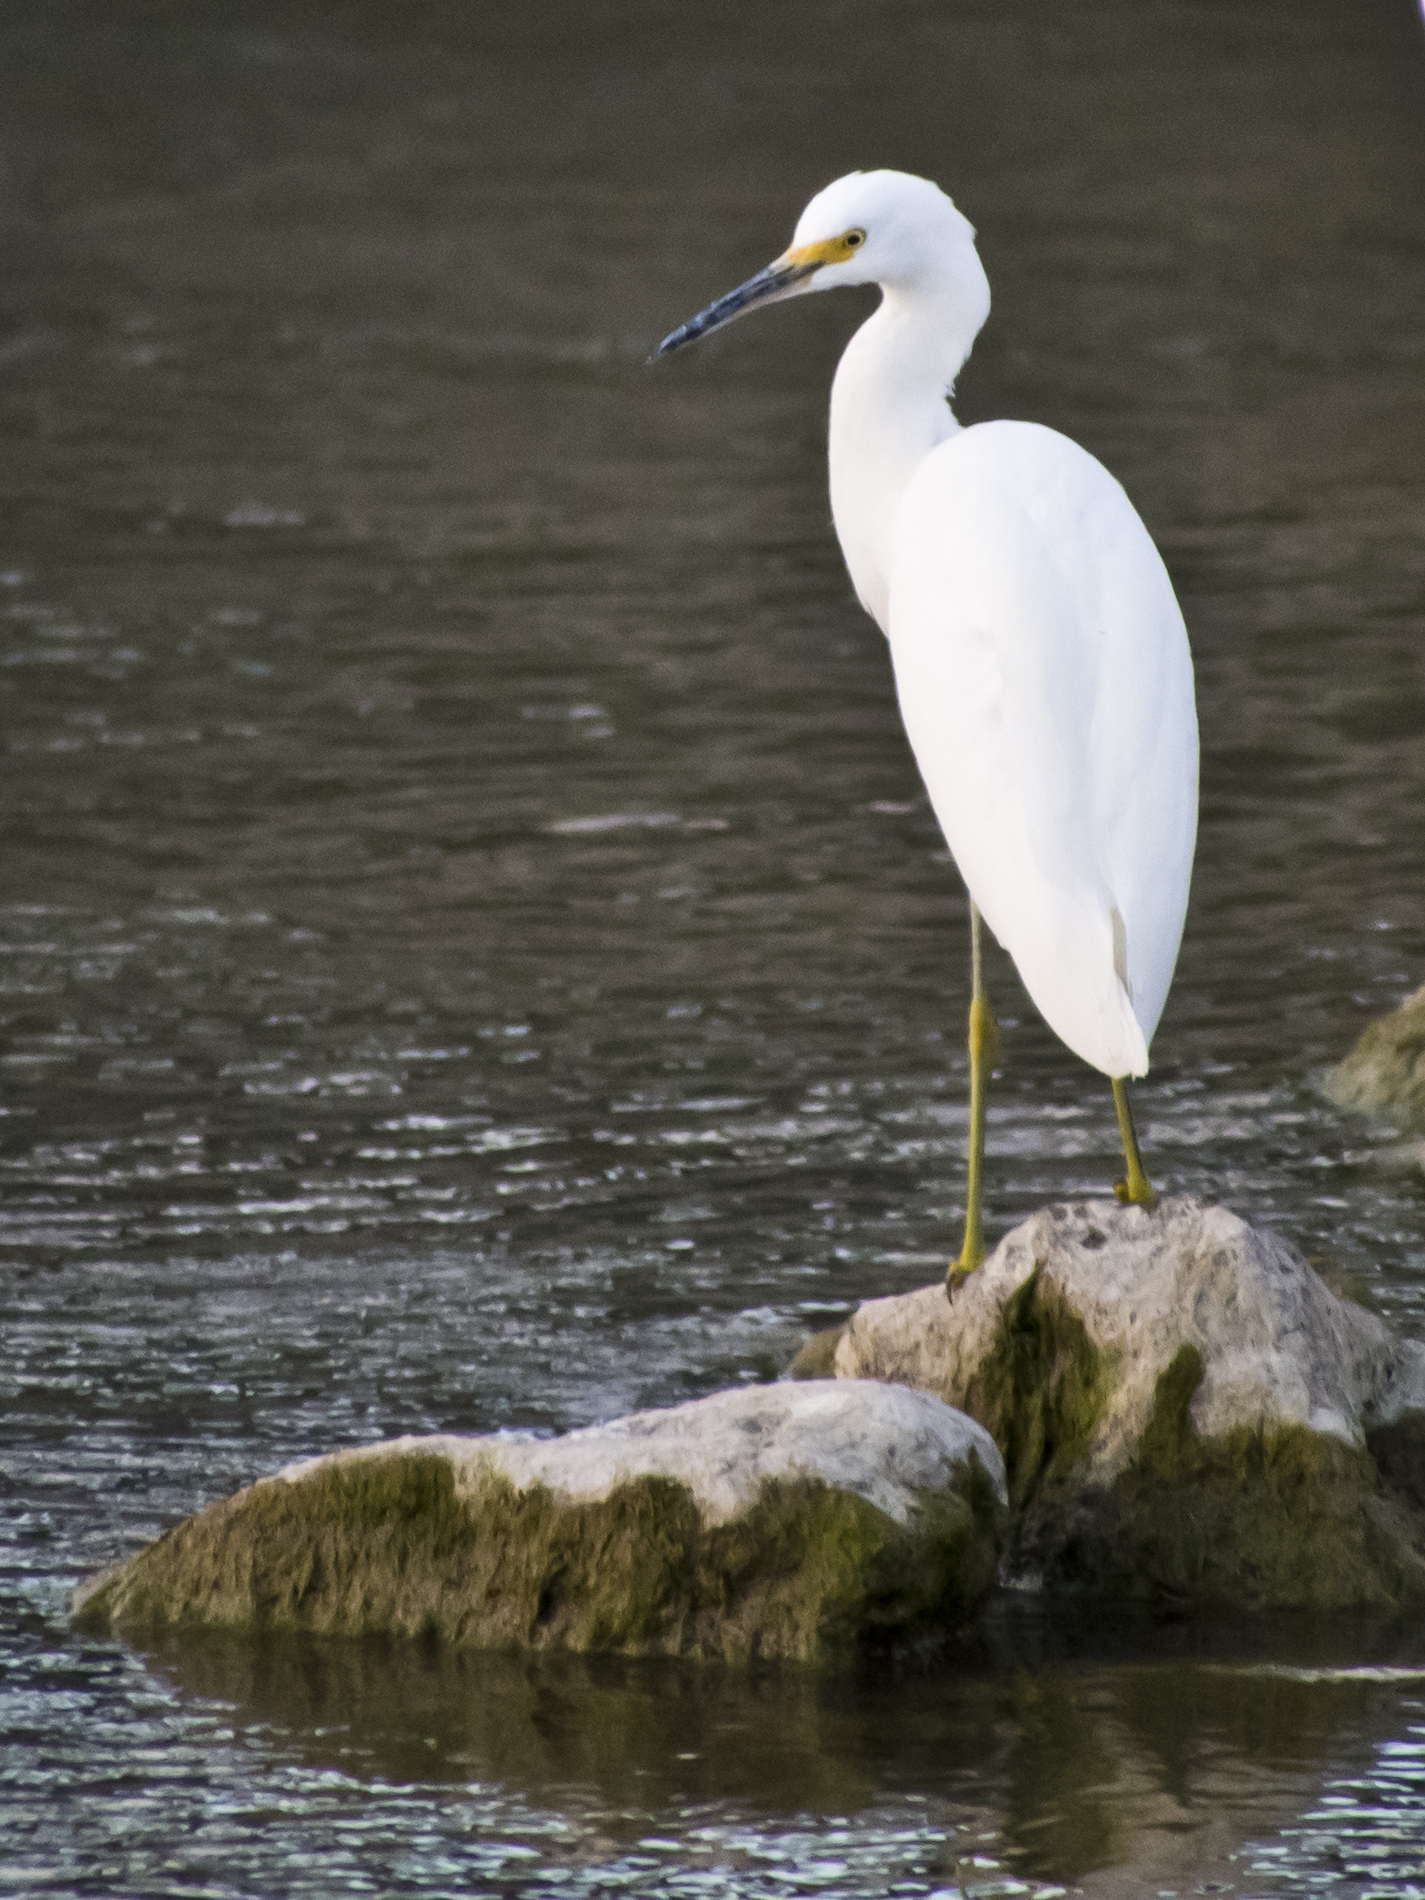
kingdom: Animalia
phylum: Chordata
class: Aves
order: Pelecaniformes
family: Ardeidae
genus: Egretta
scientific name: Egretta thula
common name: Snowy egret
